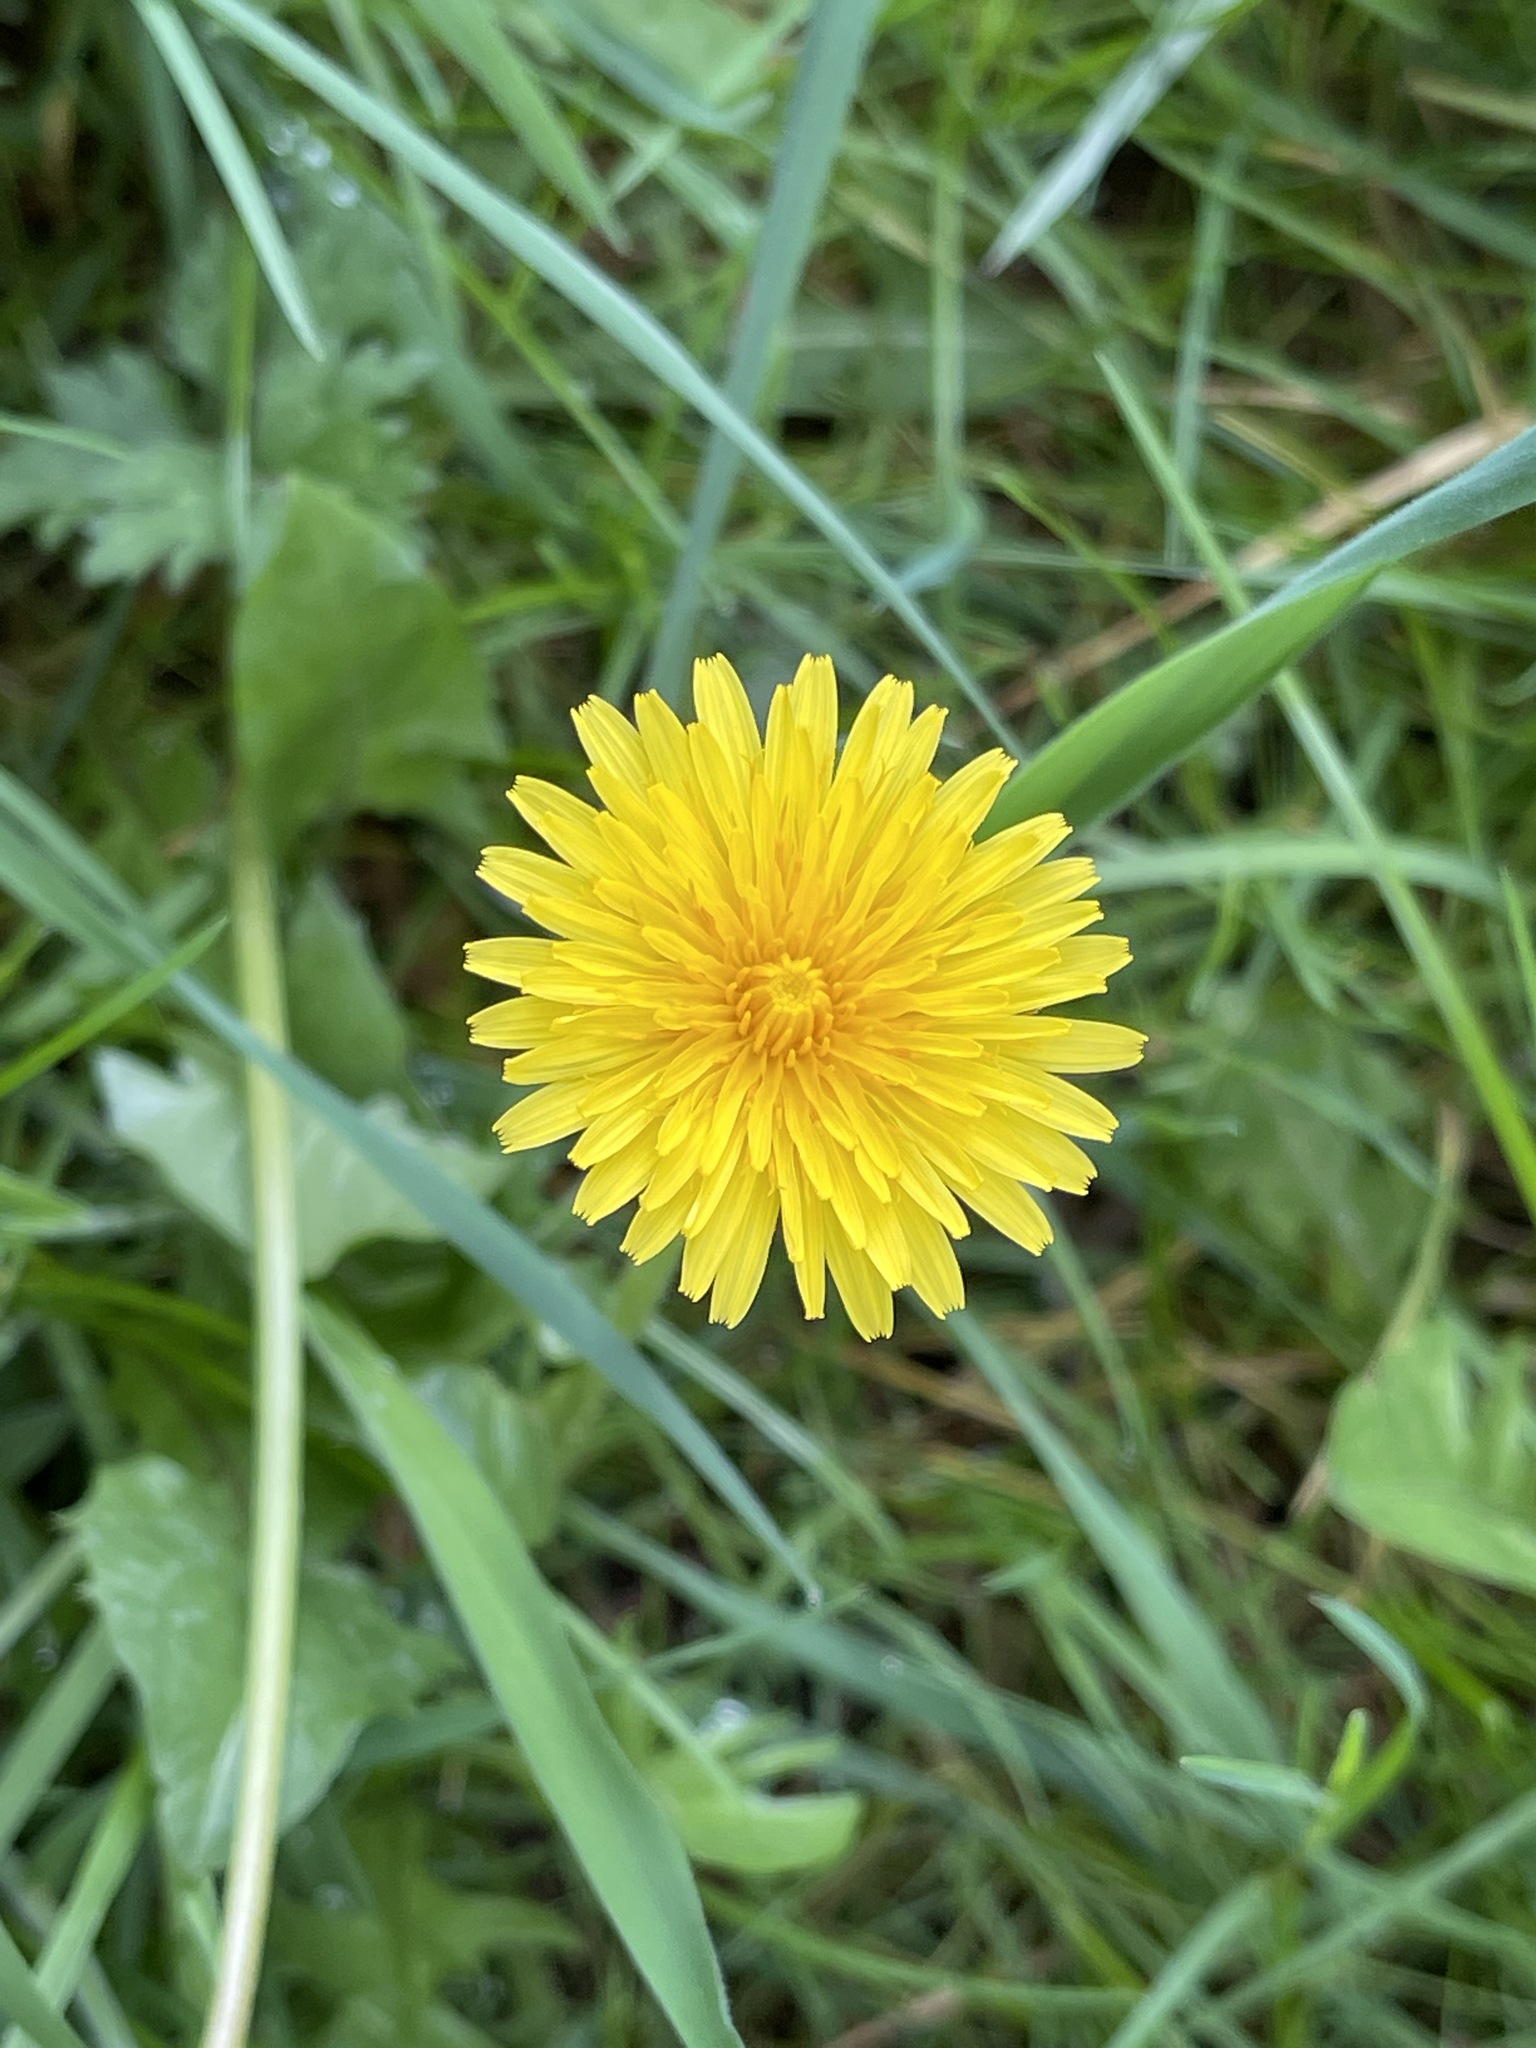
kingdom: Plantae
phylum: Tracheophyta
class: Magnoliopsida
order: Asterales
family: Asteraceae
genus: Taraxacum
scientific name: Taraxacum officinale
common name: Common dandelion
